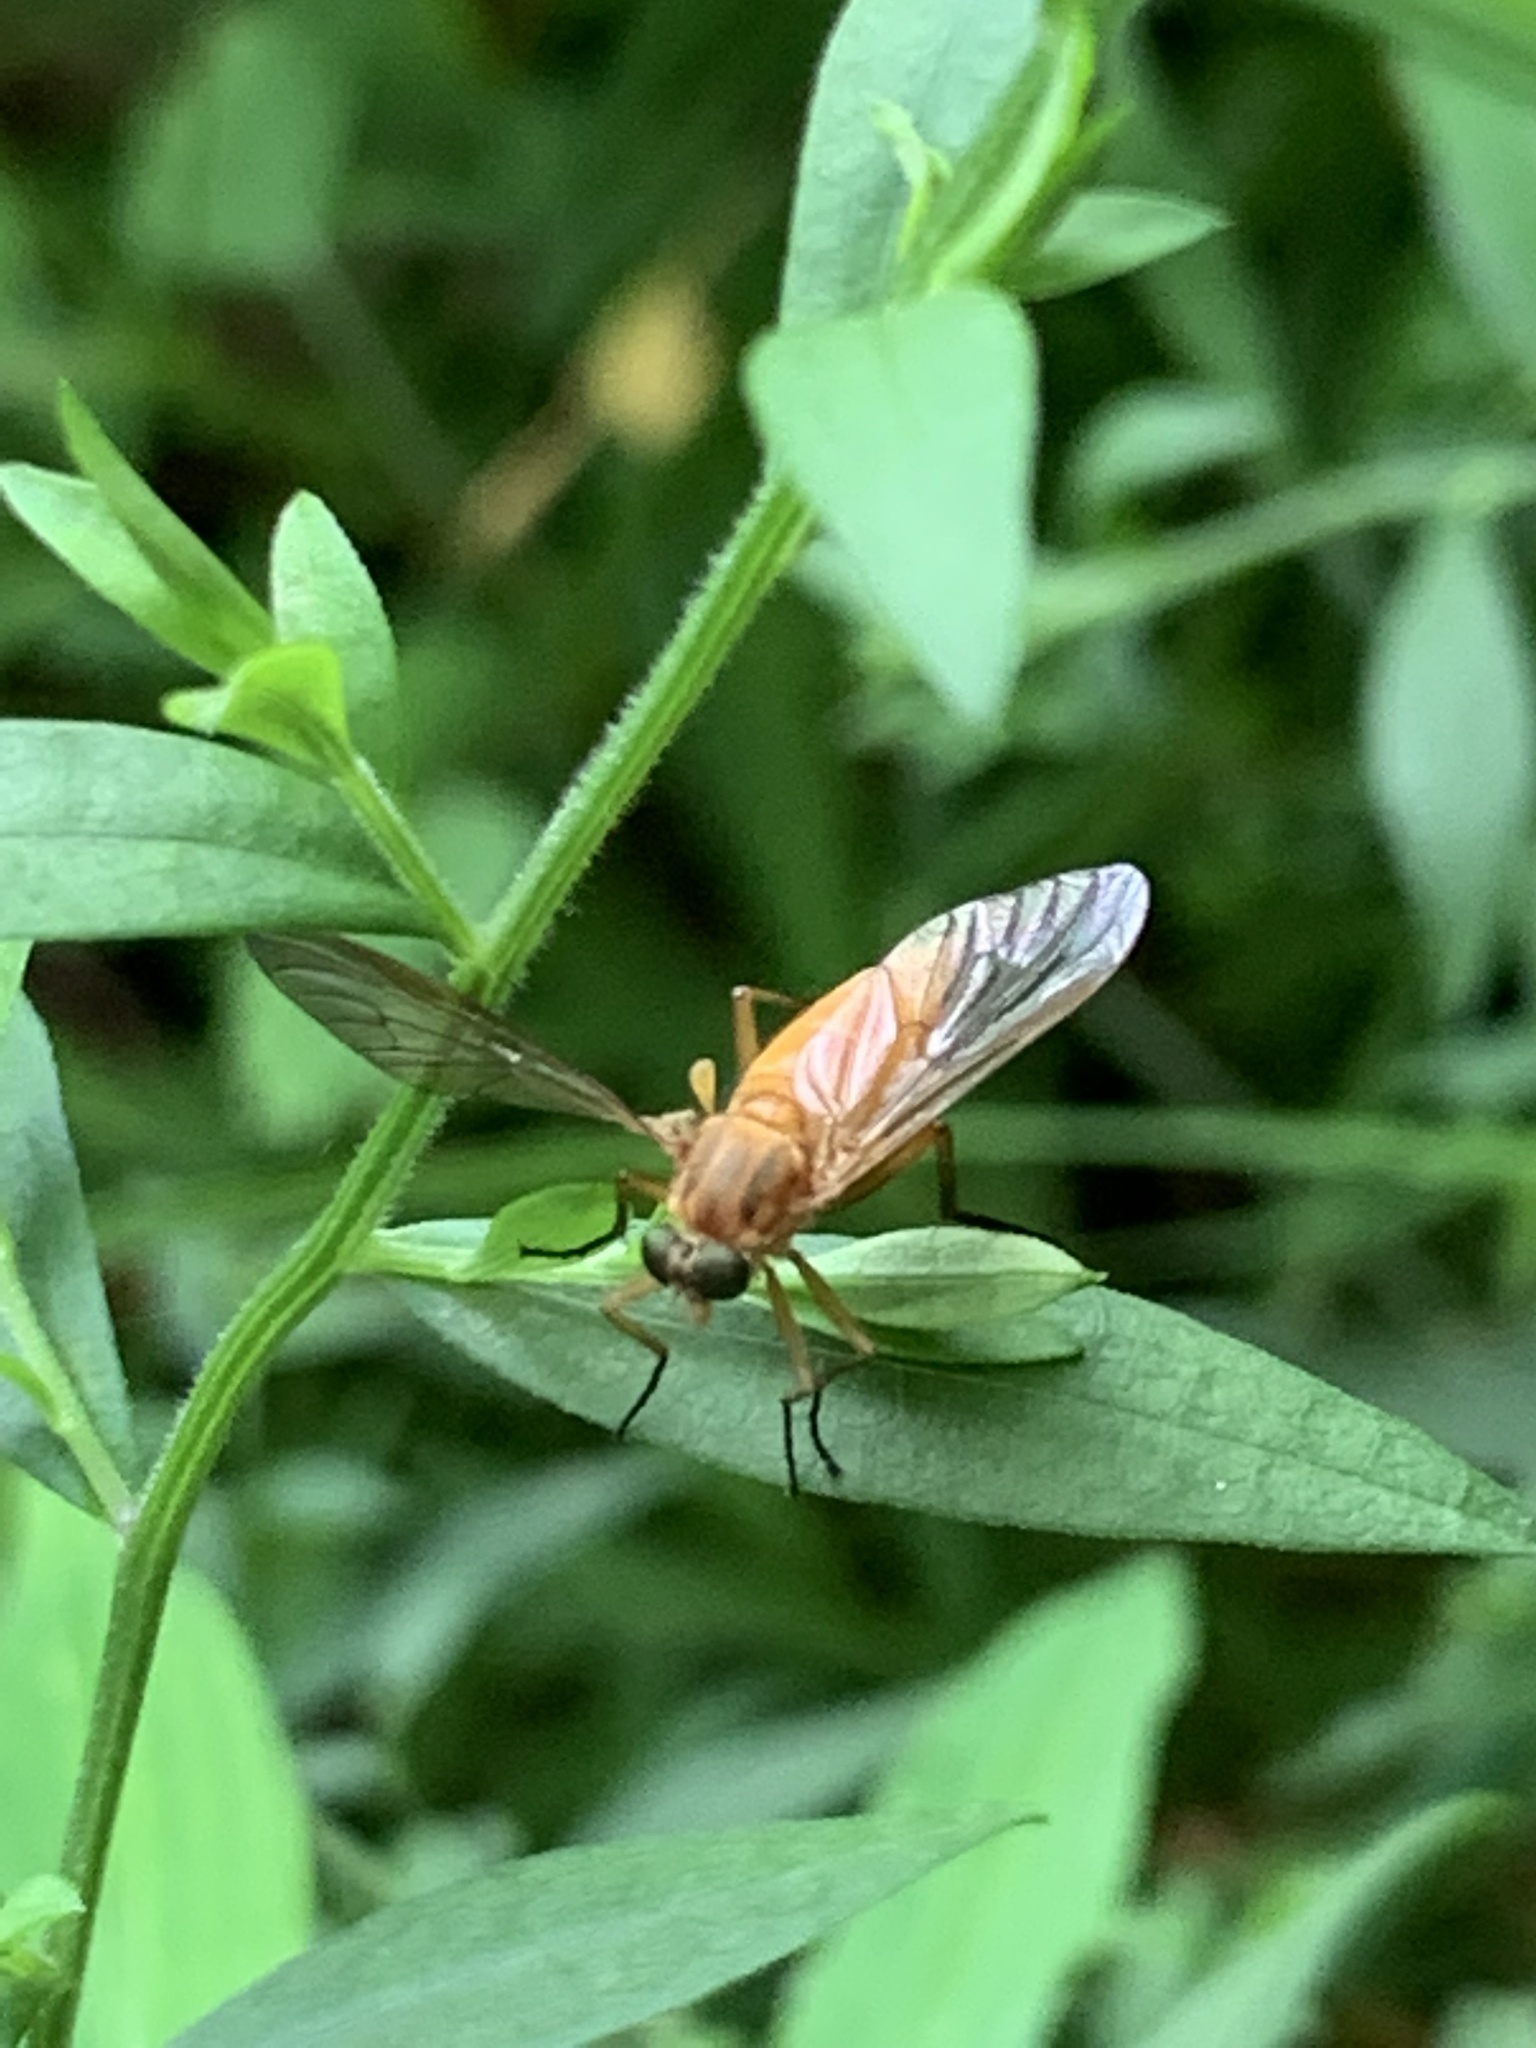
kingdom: Animalia
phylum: Arthropoda
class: Insecta
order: Diptera
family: Rhagionidae
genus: Rhagio
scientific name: Rhagio tringaria
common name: Marsh snipefly
